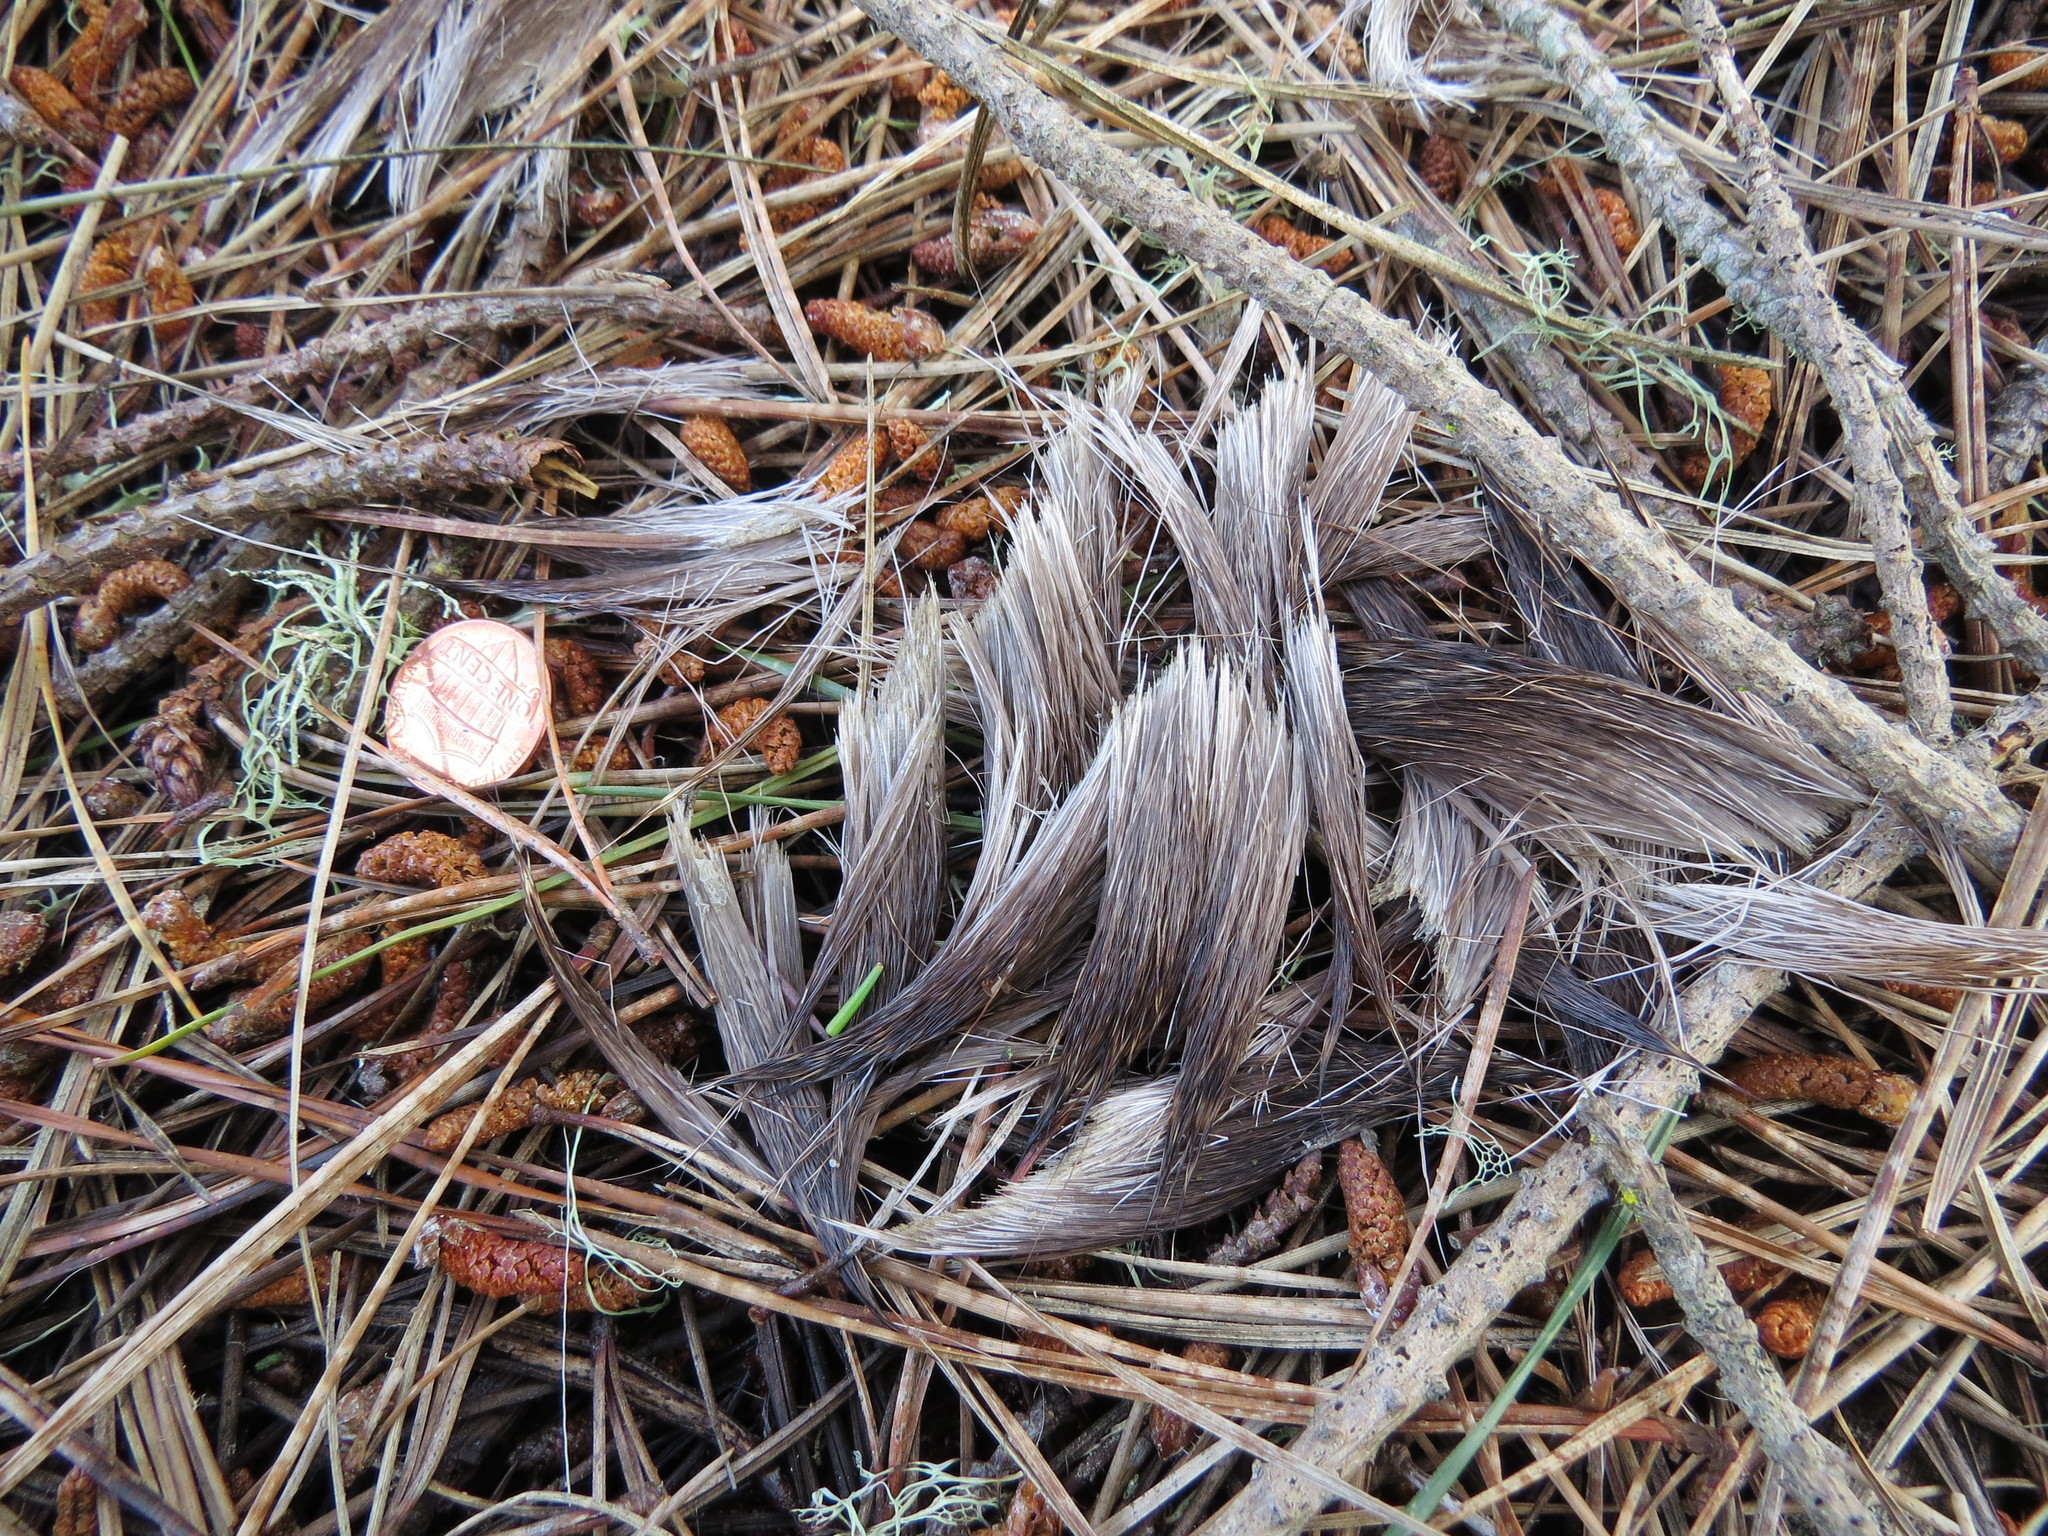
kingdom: Animalia
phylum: Chordata
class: Mammalia
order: Carnivora
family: Felidae
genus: Puma
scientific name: Puma concolor
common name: Puma
